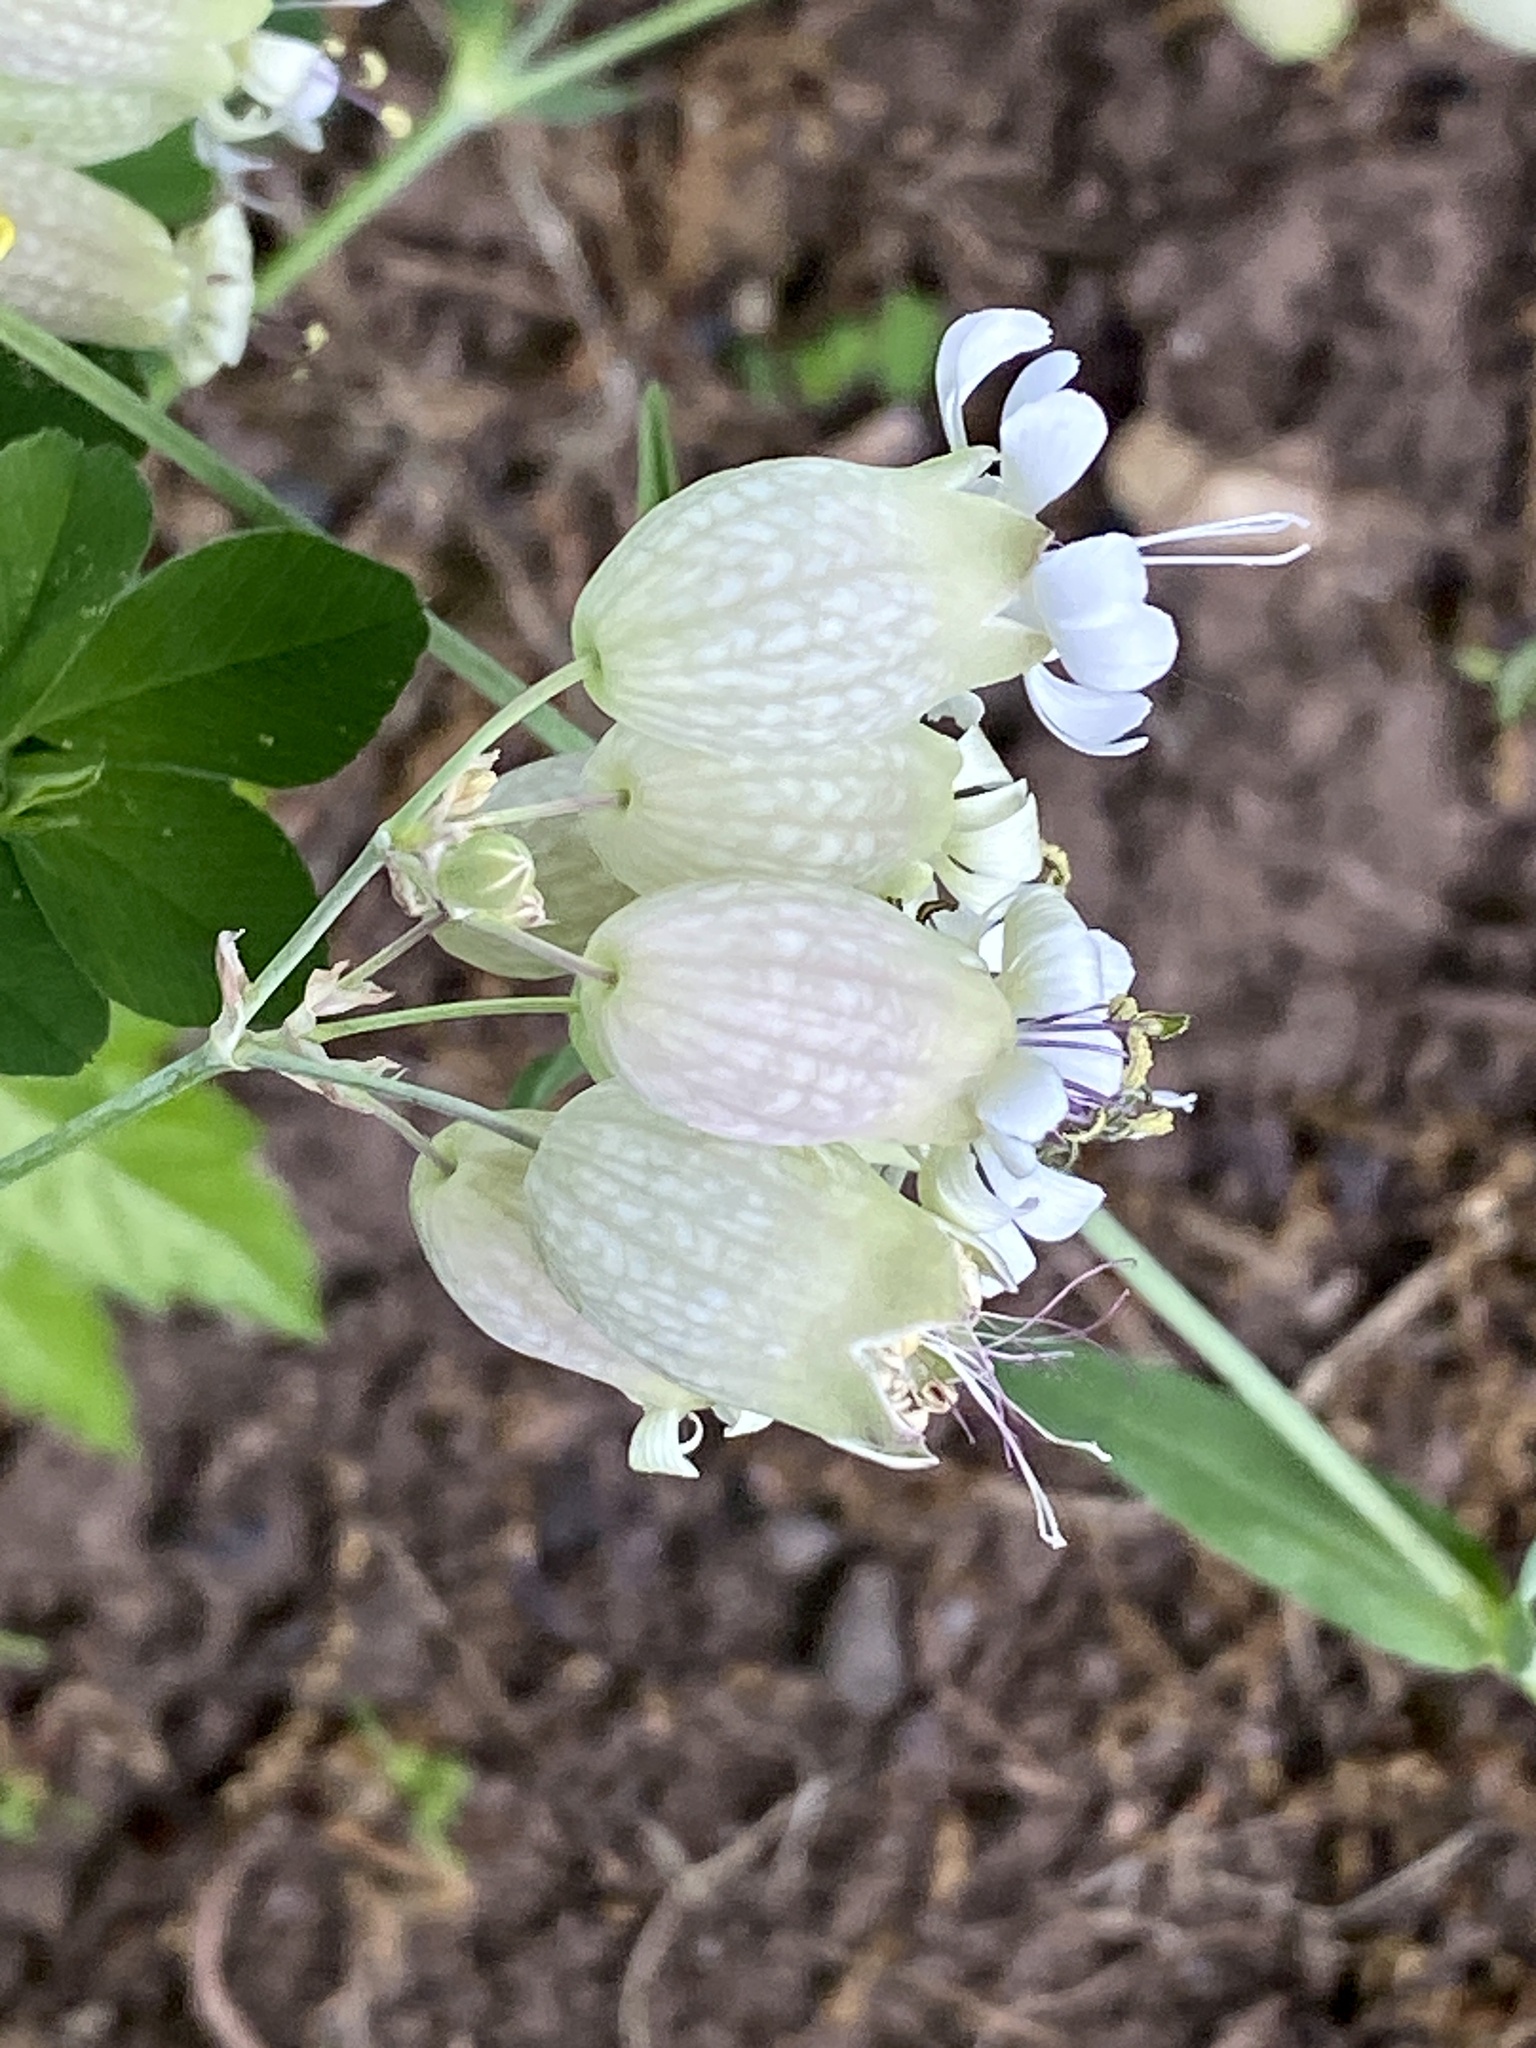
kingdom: Plantae
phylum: Tracheophyta
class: Magnoliopsida
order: Caryophyllales
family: Caryophyllaceae
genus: Silene
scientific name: Silene vulgaris
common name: Bladder campion
